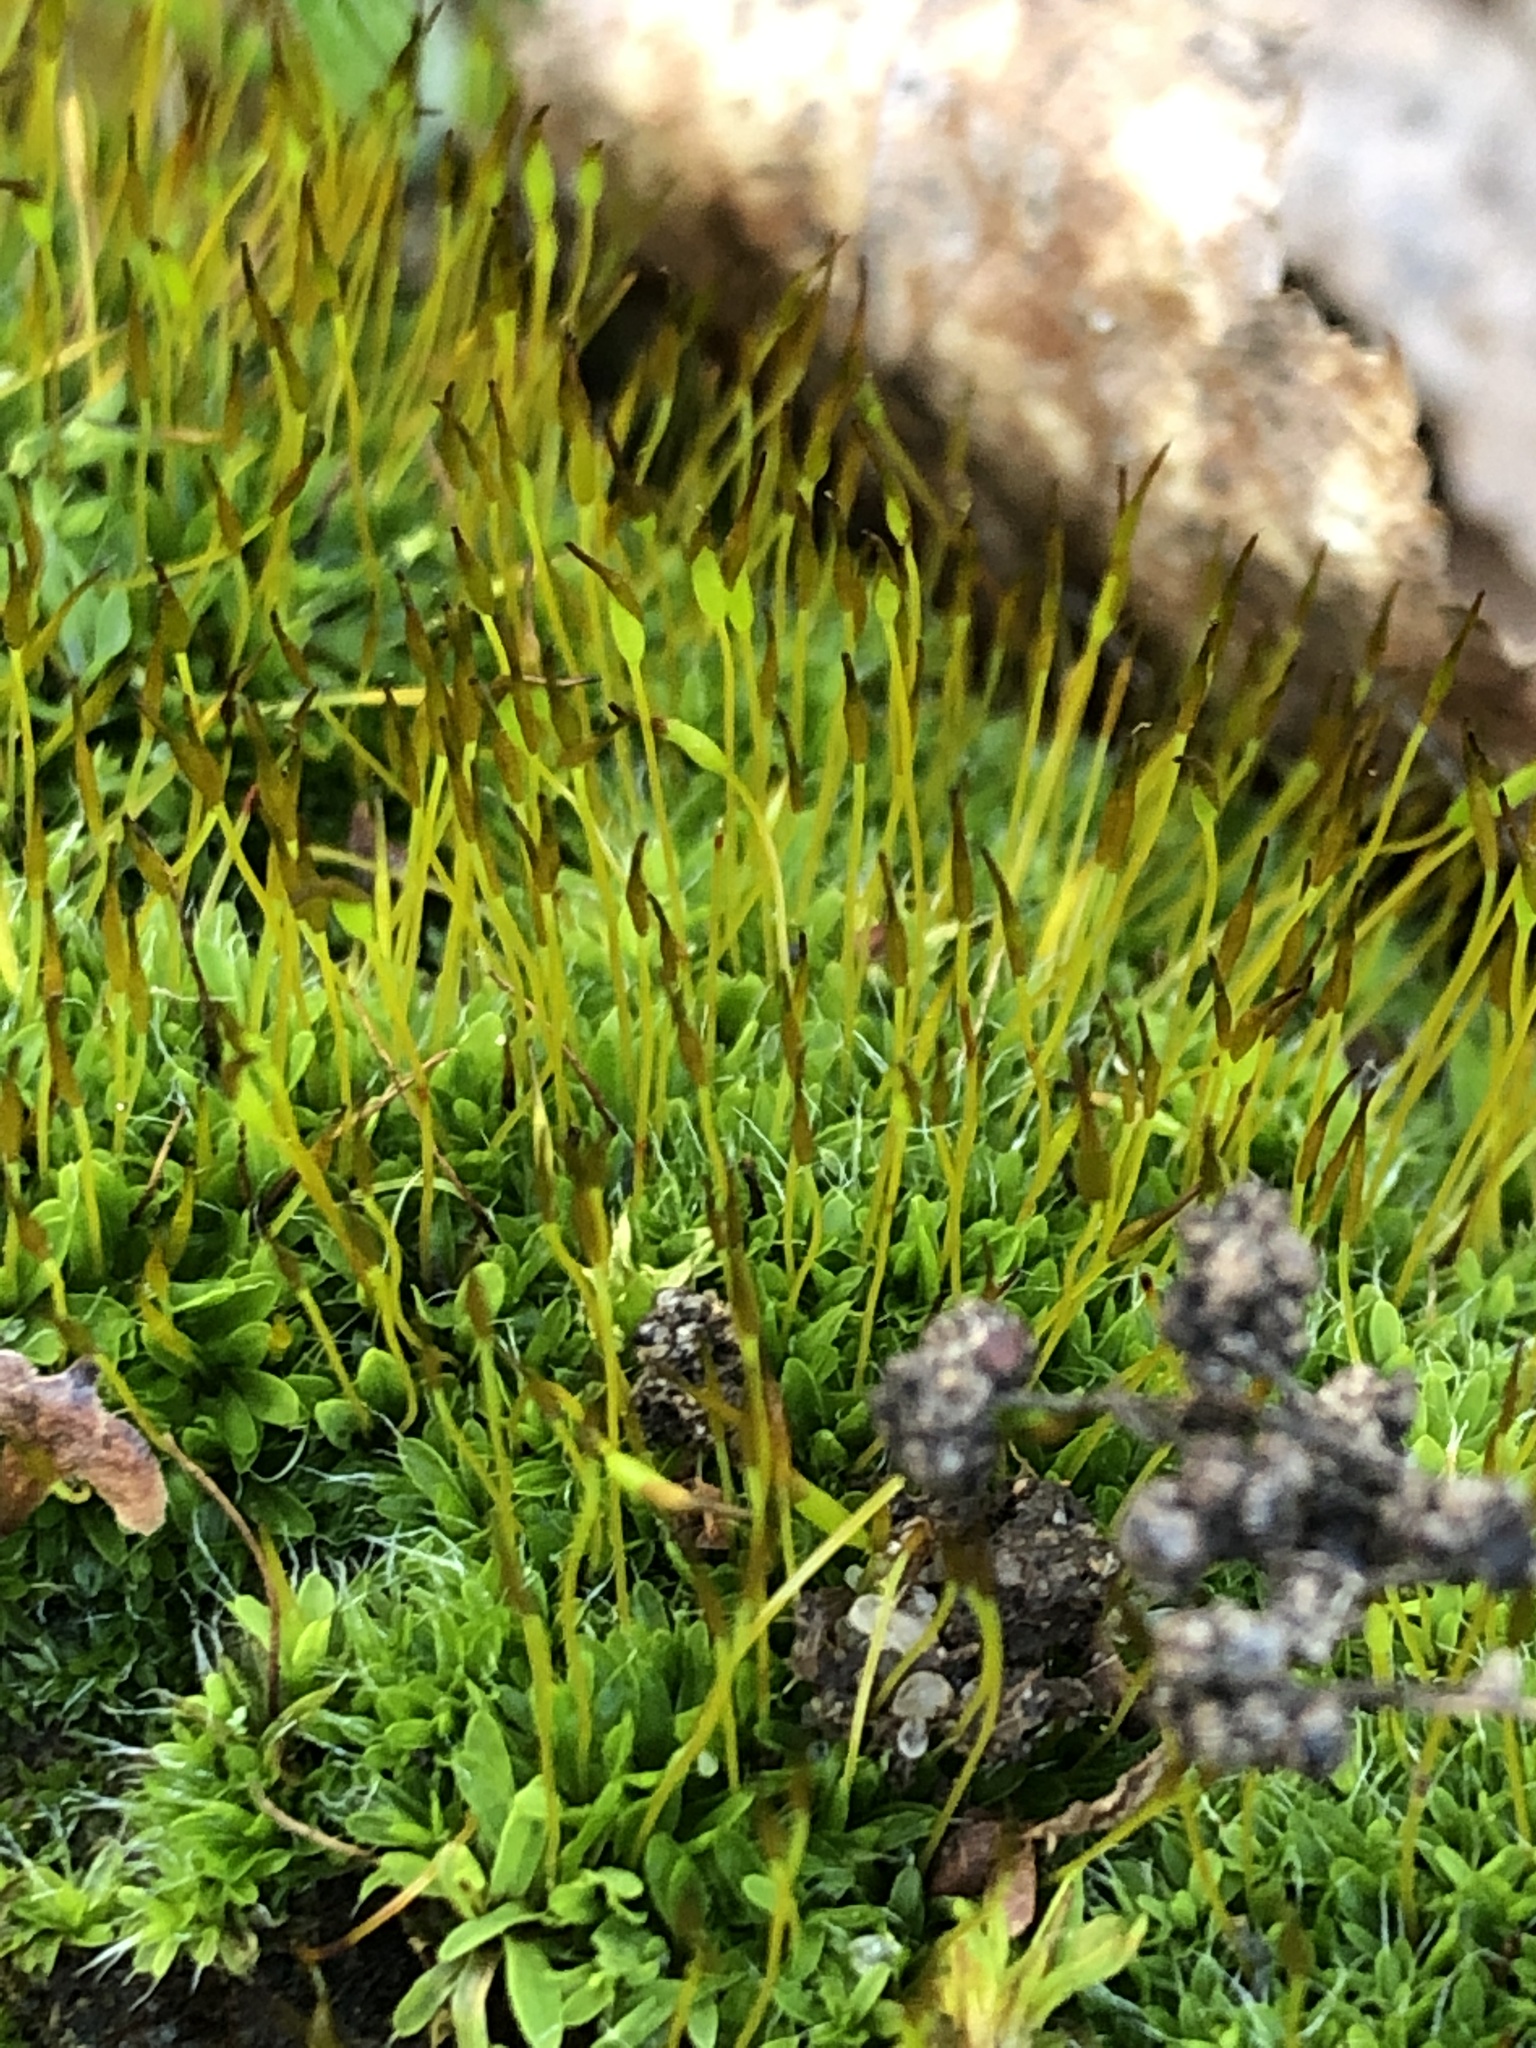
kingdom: Plantae
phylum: Bryophyta
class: Bryopsida
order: Pottiales
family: Pottiaceae
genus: Tortula
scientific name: Tortula muralis
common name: Wall screw-moss
